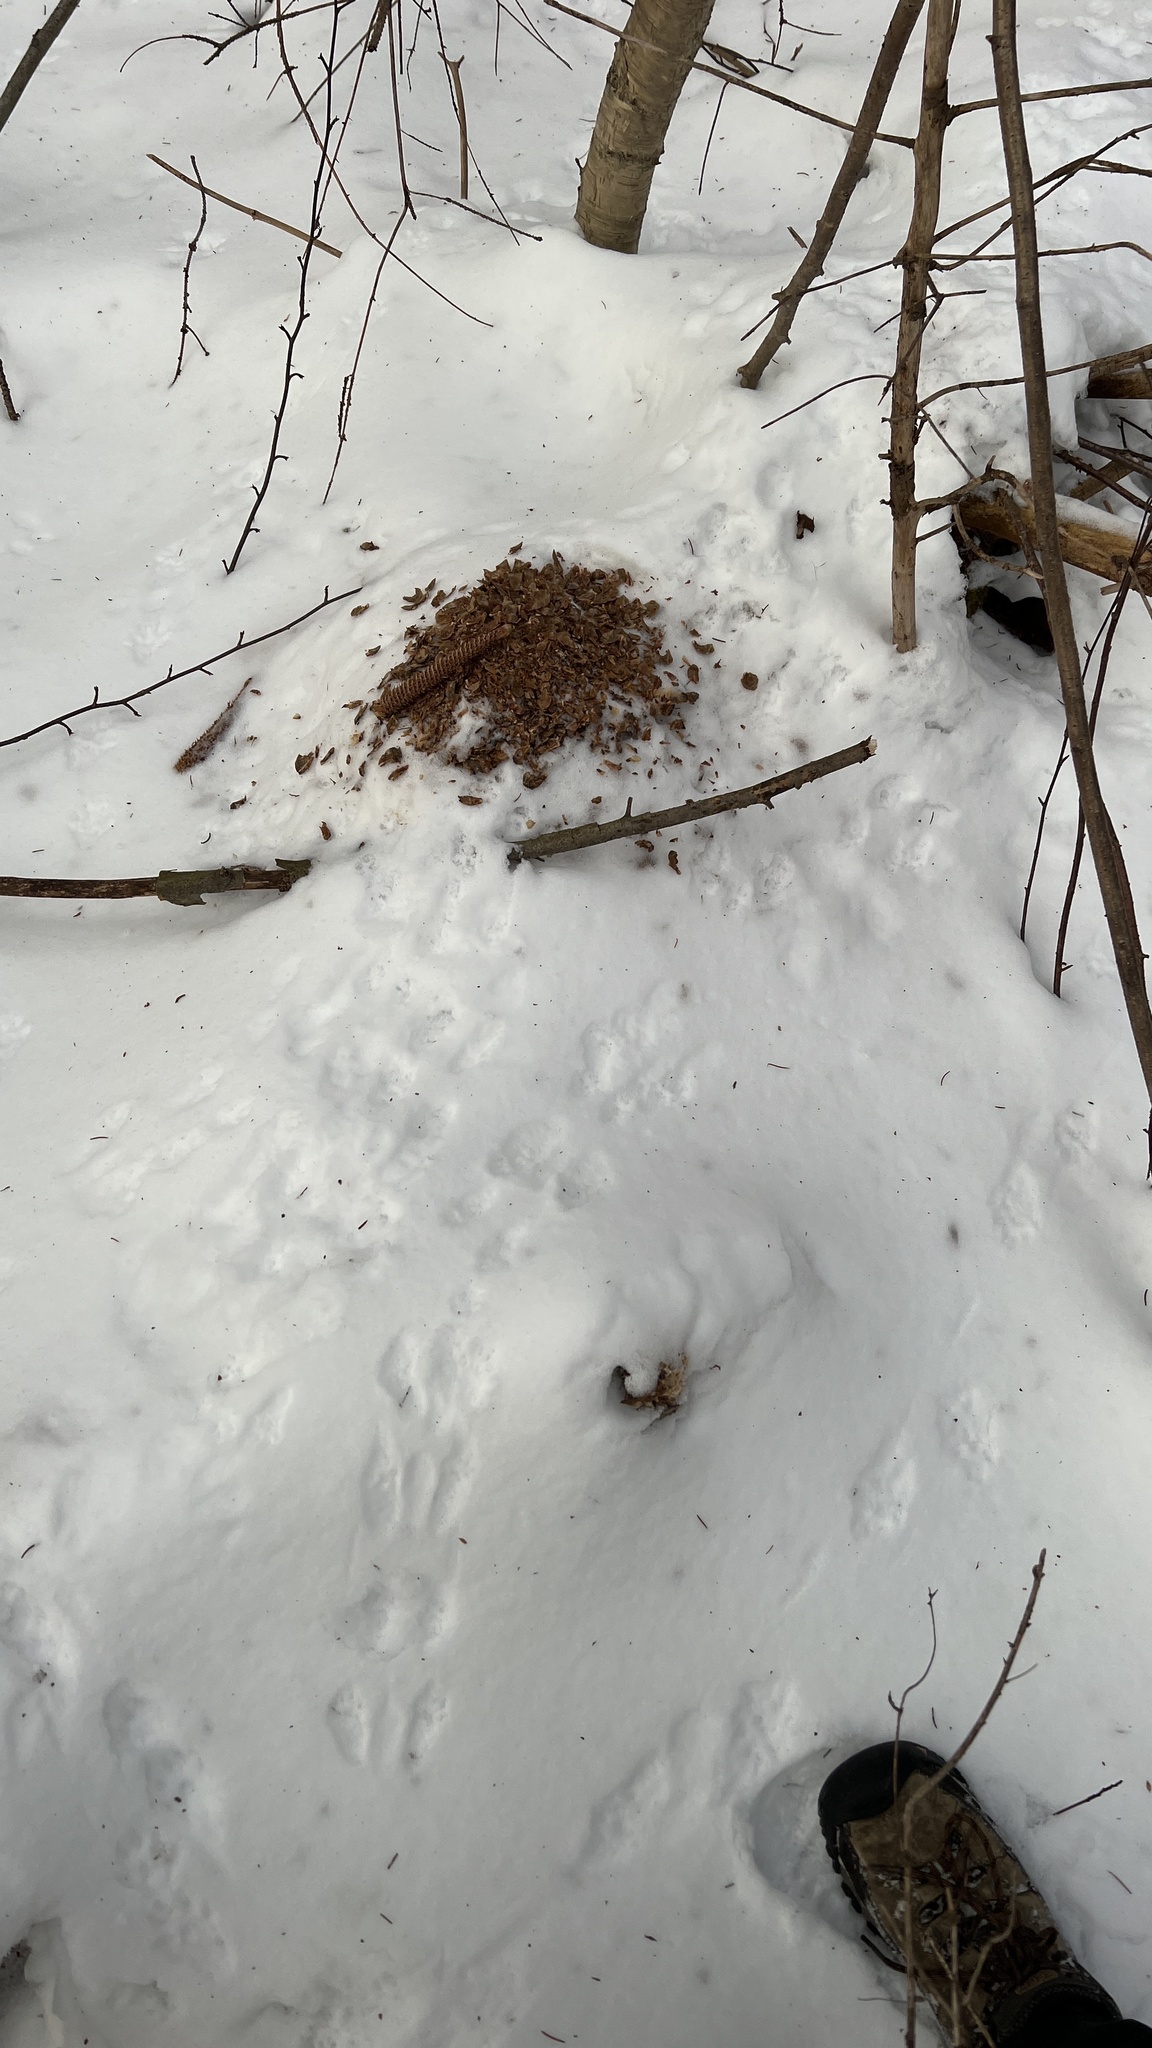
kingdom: Animalia
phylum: Chordata
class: Mammalia
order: Rodentia
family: Sciuridae
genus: Tamiasciurus
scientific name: Tamiasciurus hudsonicus
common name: Red squirrel
